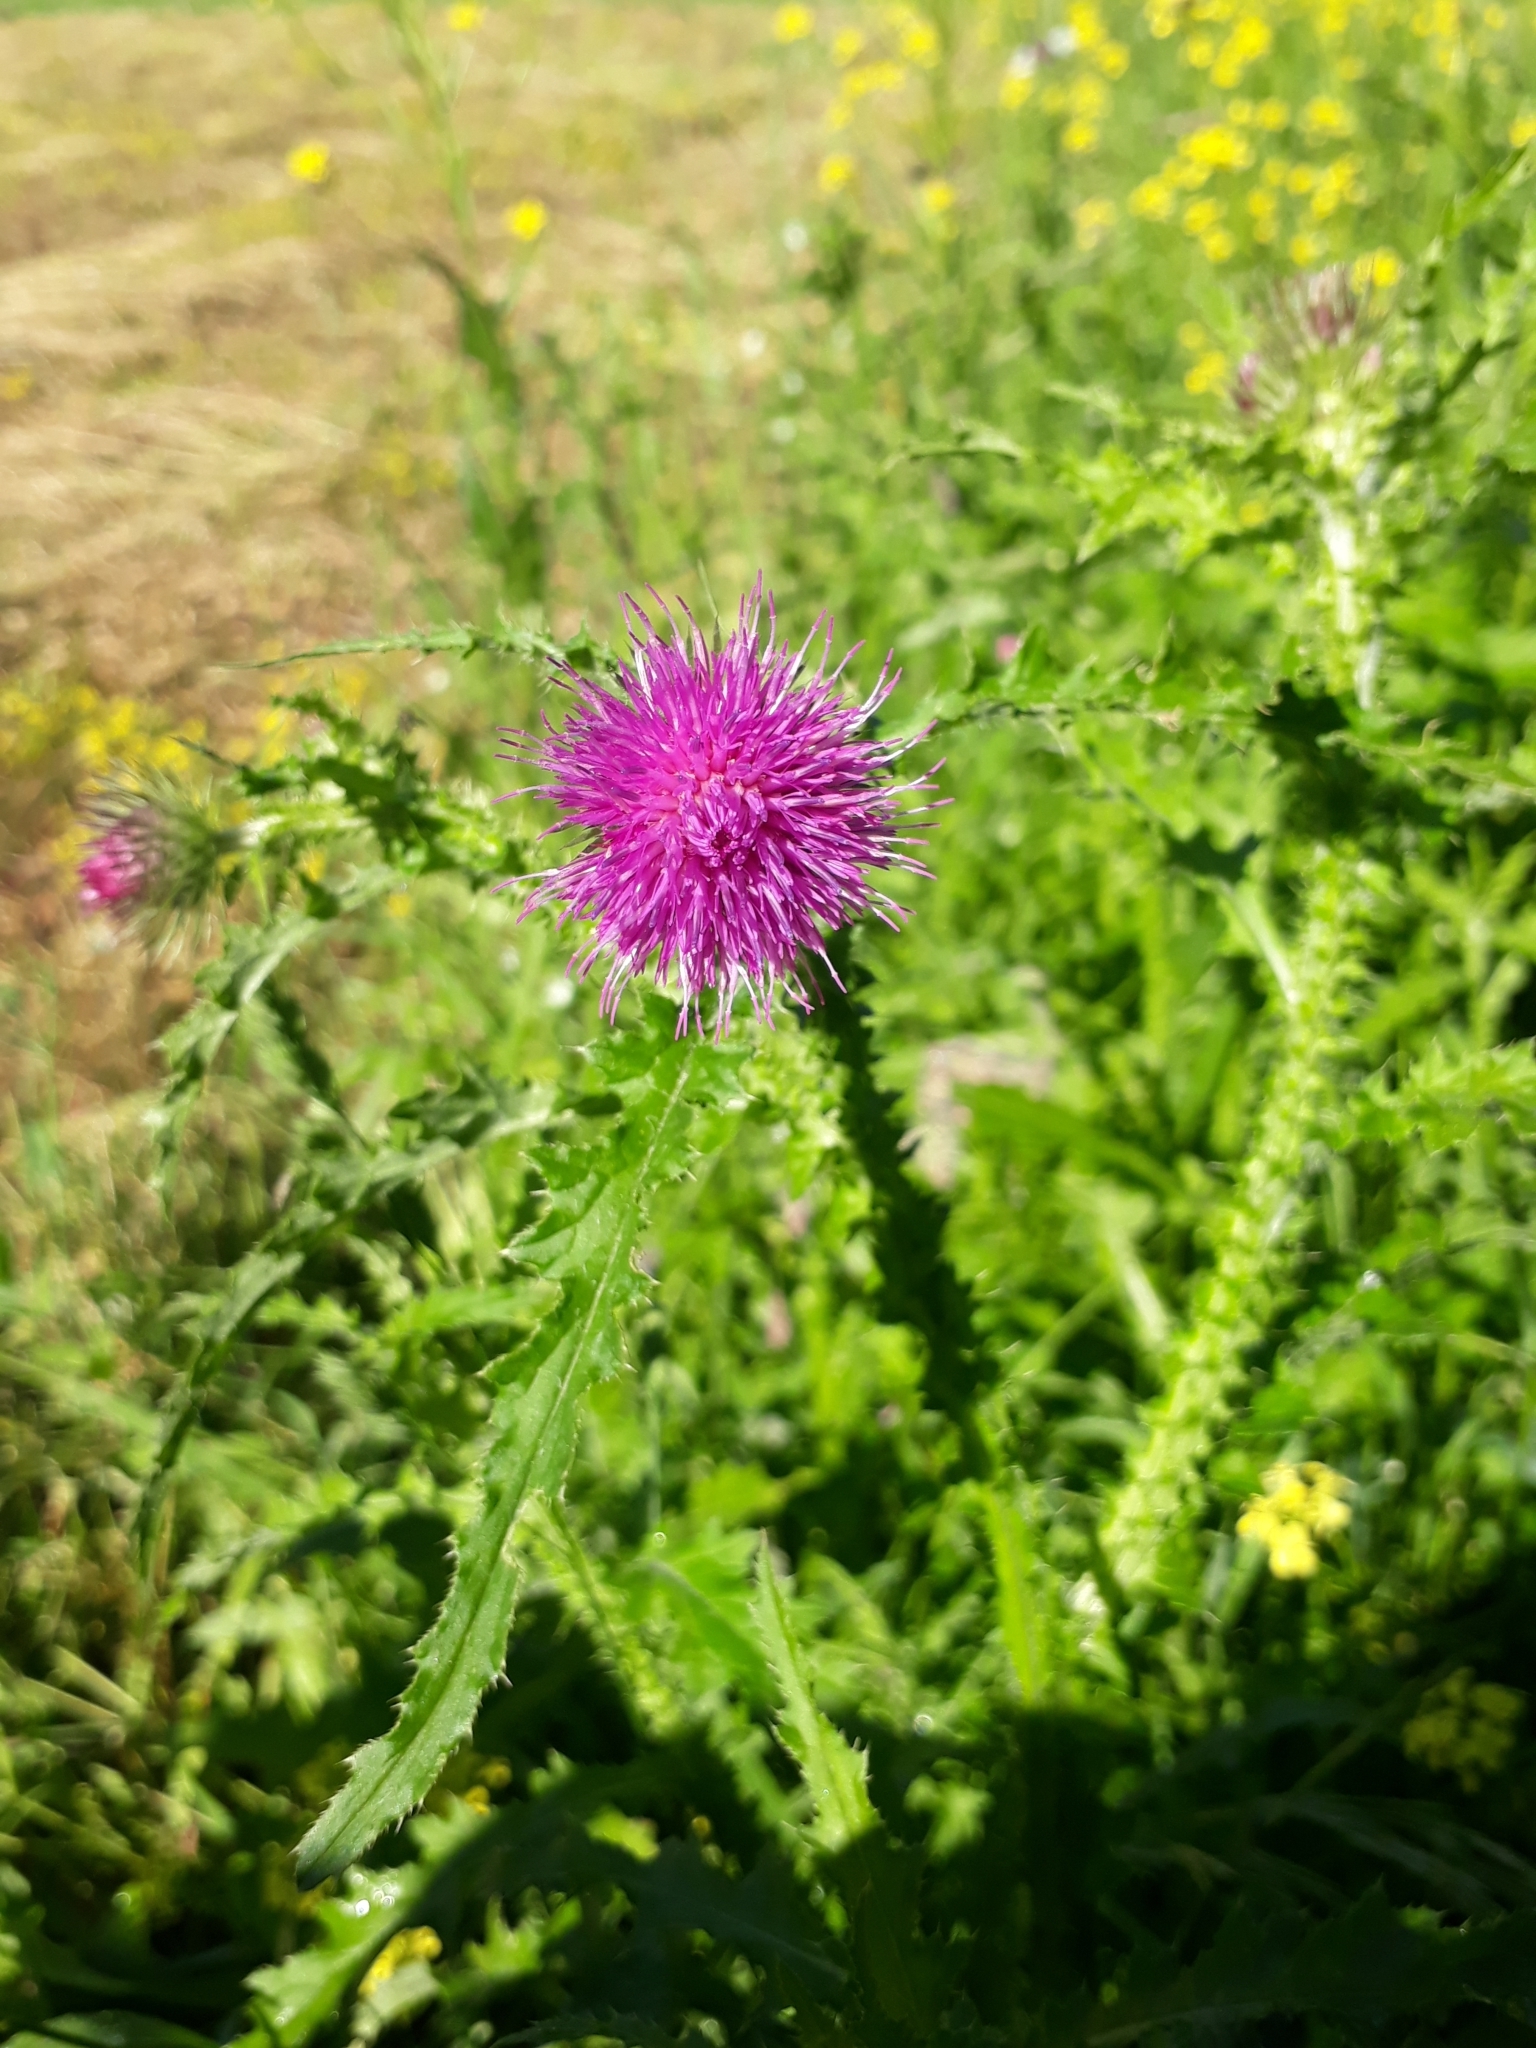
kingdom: Plantae
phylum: Tracheophyta
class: Magnoliopsida
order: Asterales
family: Asteraceae
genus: Carduus
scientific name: Carduus crispus
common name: Welted thistle
